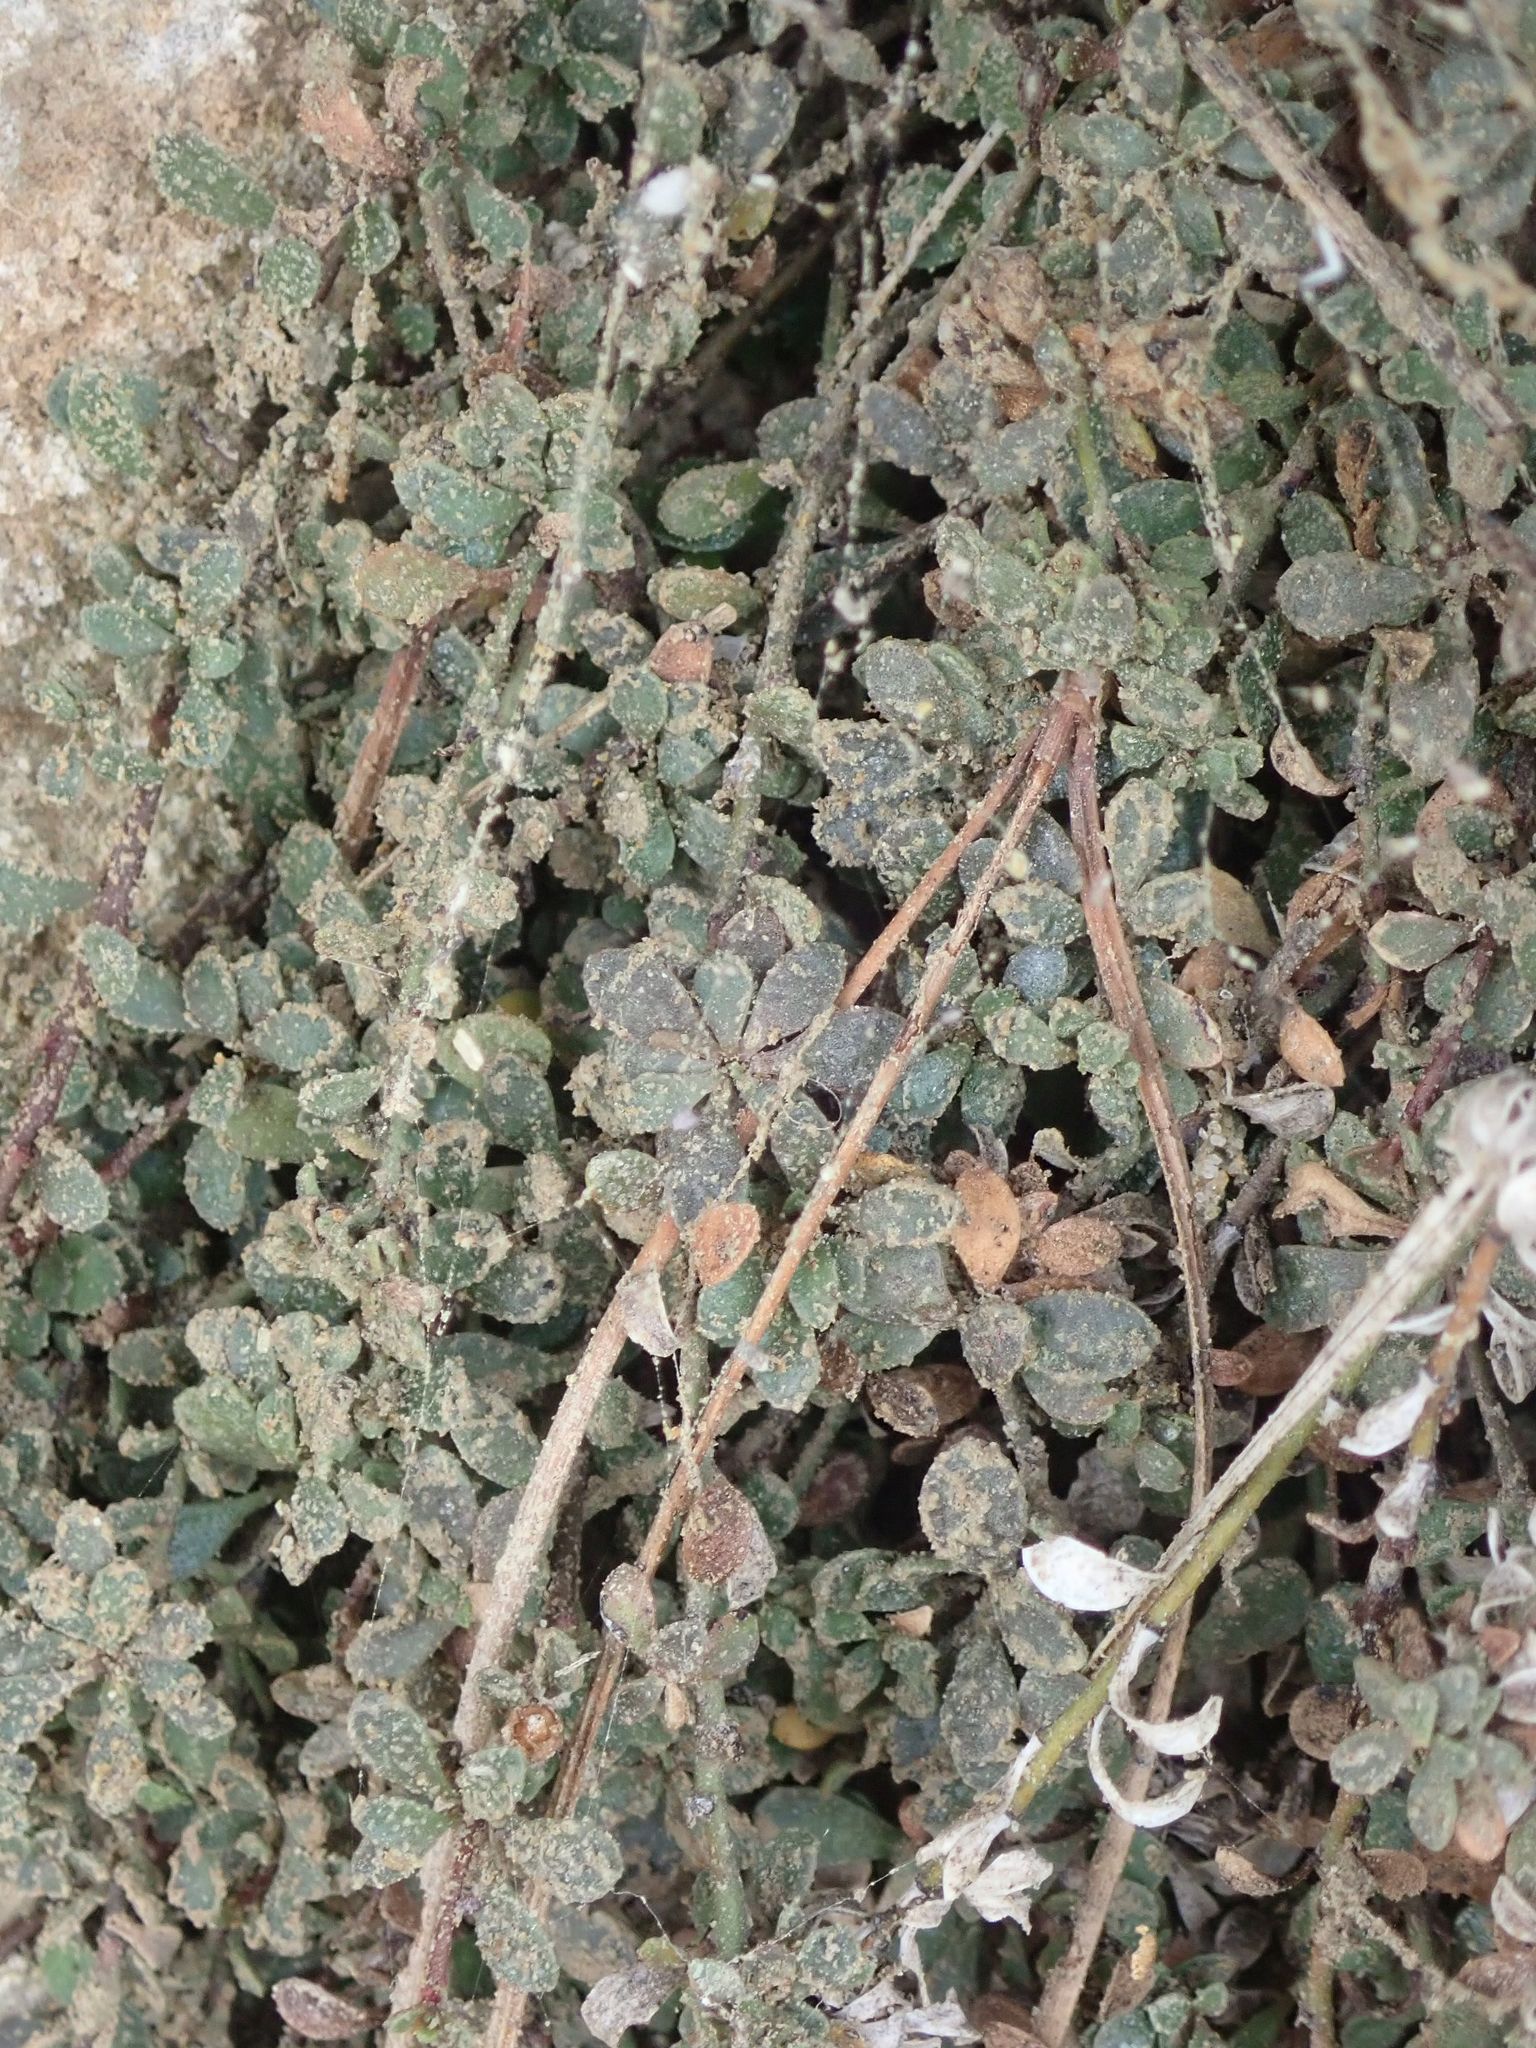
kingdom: Plantae
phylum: Tracheophyta
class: Magnoliopsida
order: Ericales
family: Primulaceae
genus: Samolus
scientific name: Samolus repens
